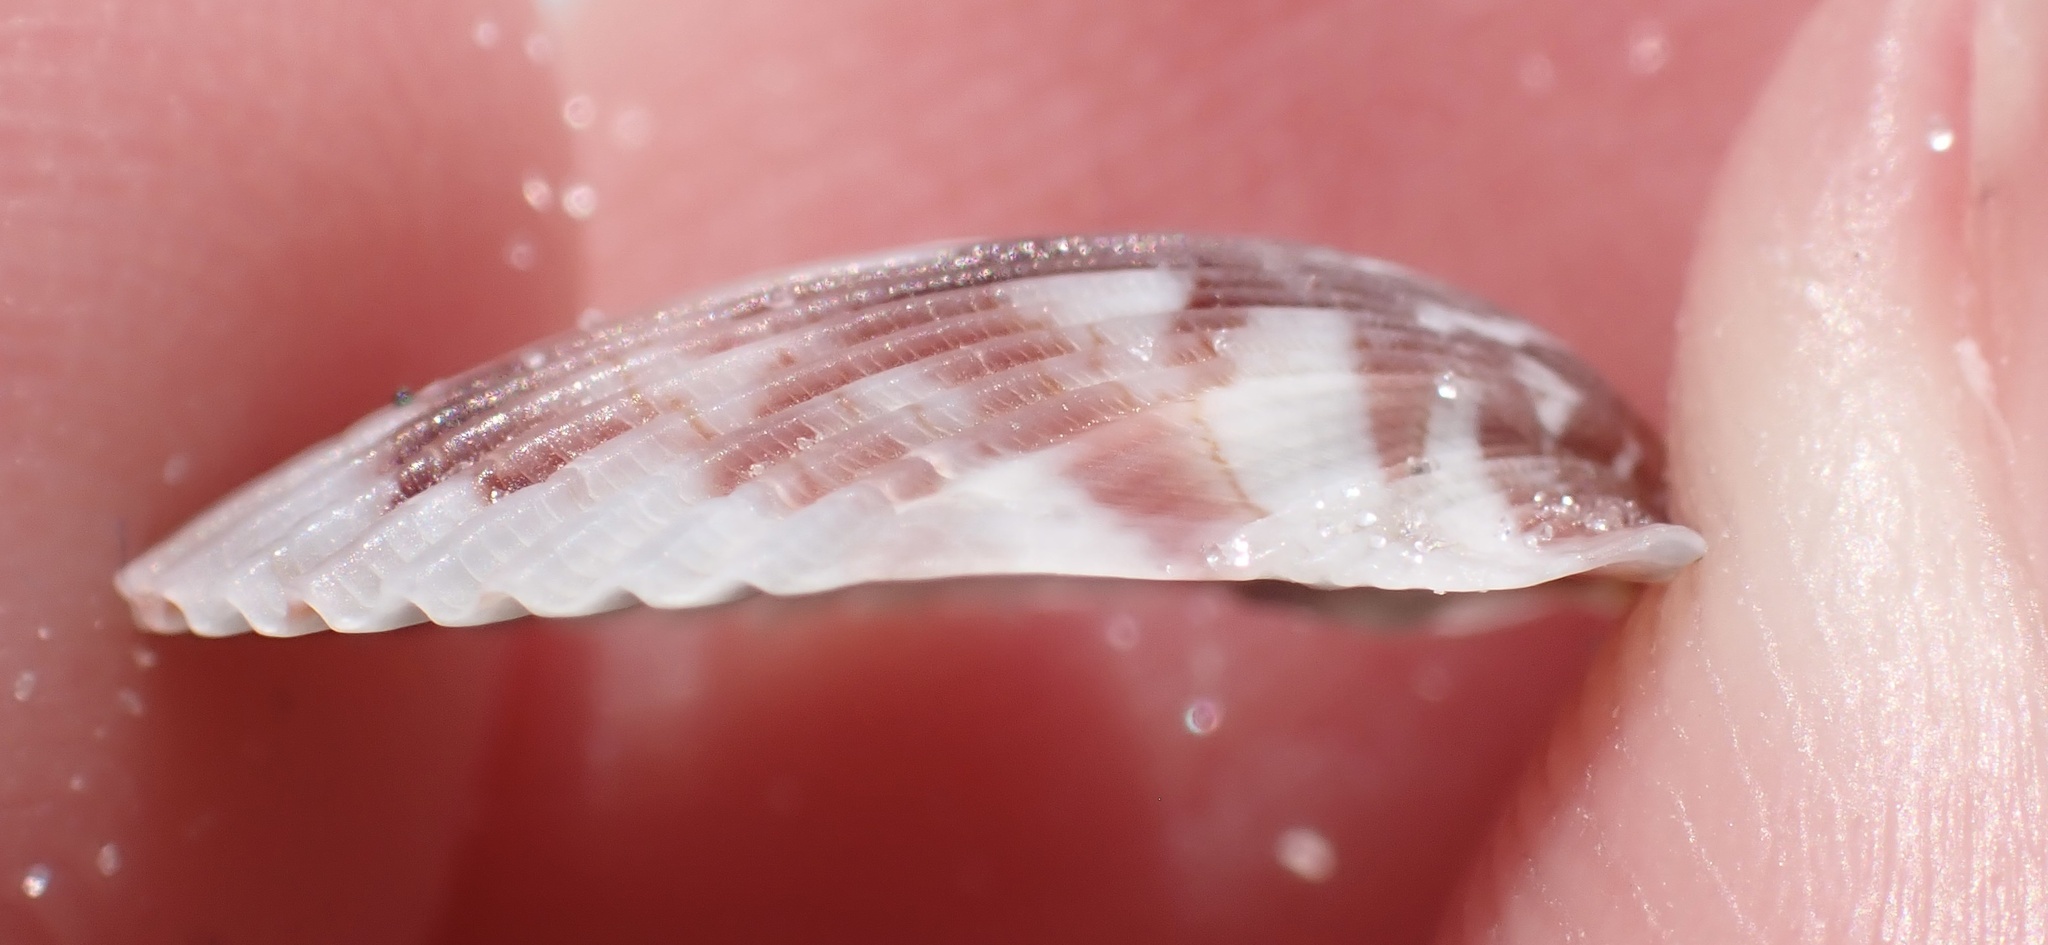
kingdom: Animalia
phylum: Mollusca
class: Bivalvia
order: Pectinida
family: Pectinidae
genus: Argopecten
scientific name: Argopecten gibbus
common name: Atlantic calico scallop
